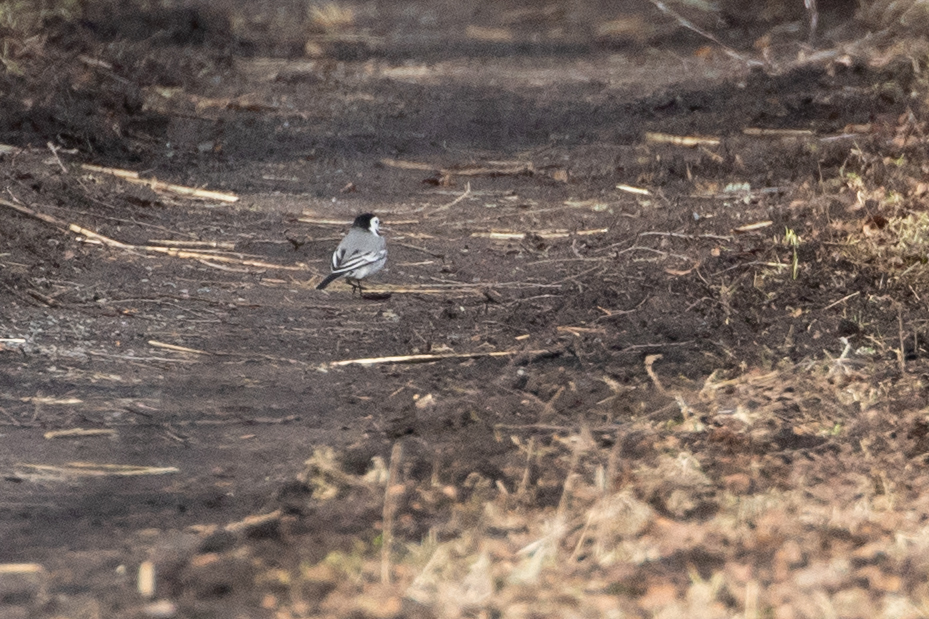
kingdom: Animalia
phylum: Chordata
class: Aves
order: Passeriformes
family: Motacillidae
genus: Motacilla
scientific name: Motacilla alba
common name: White wagtail
